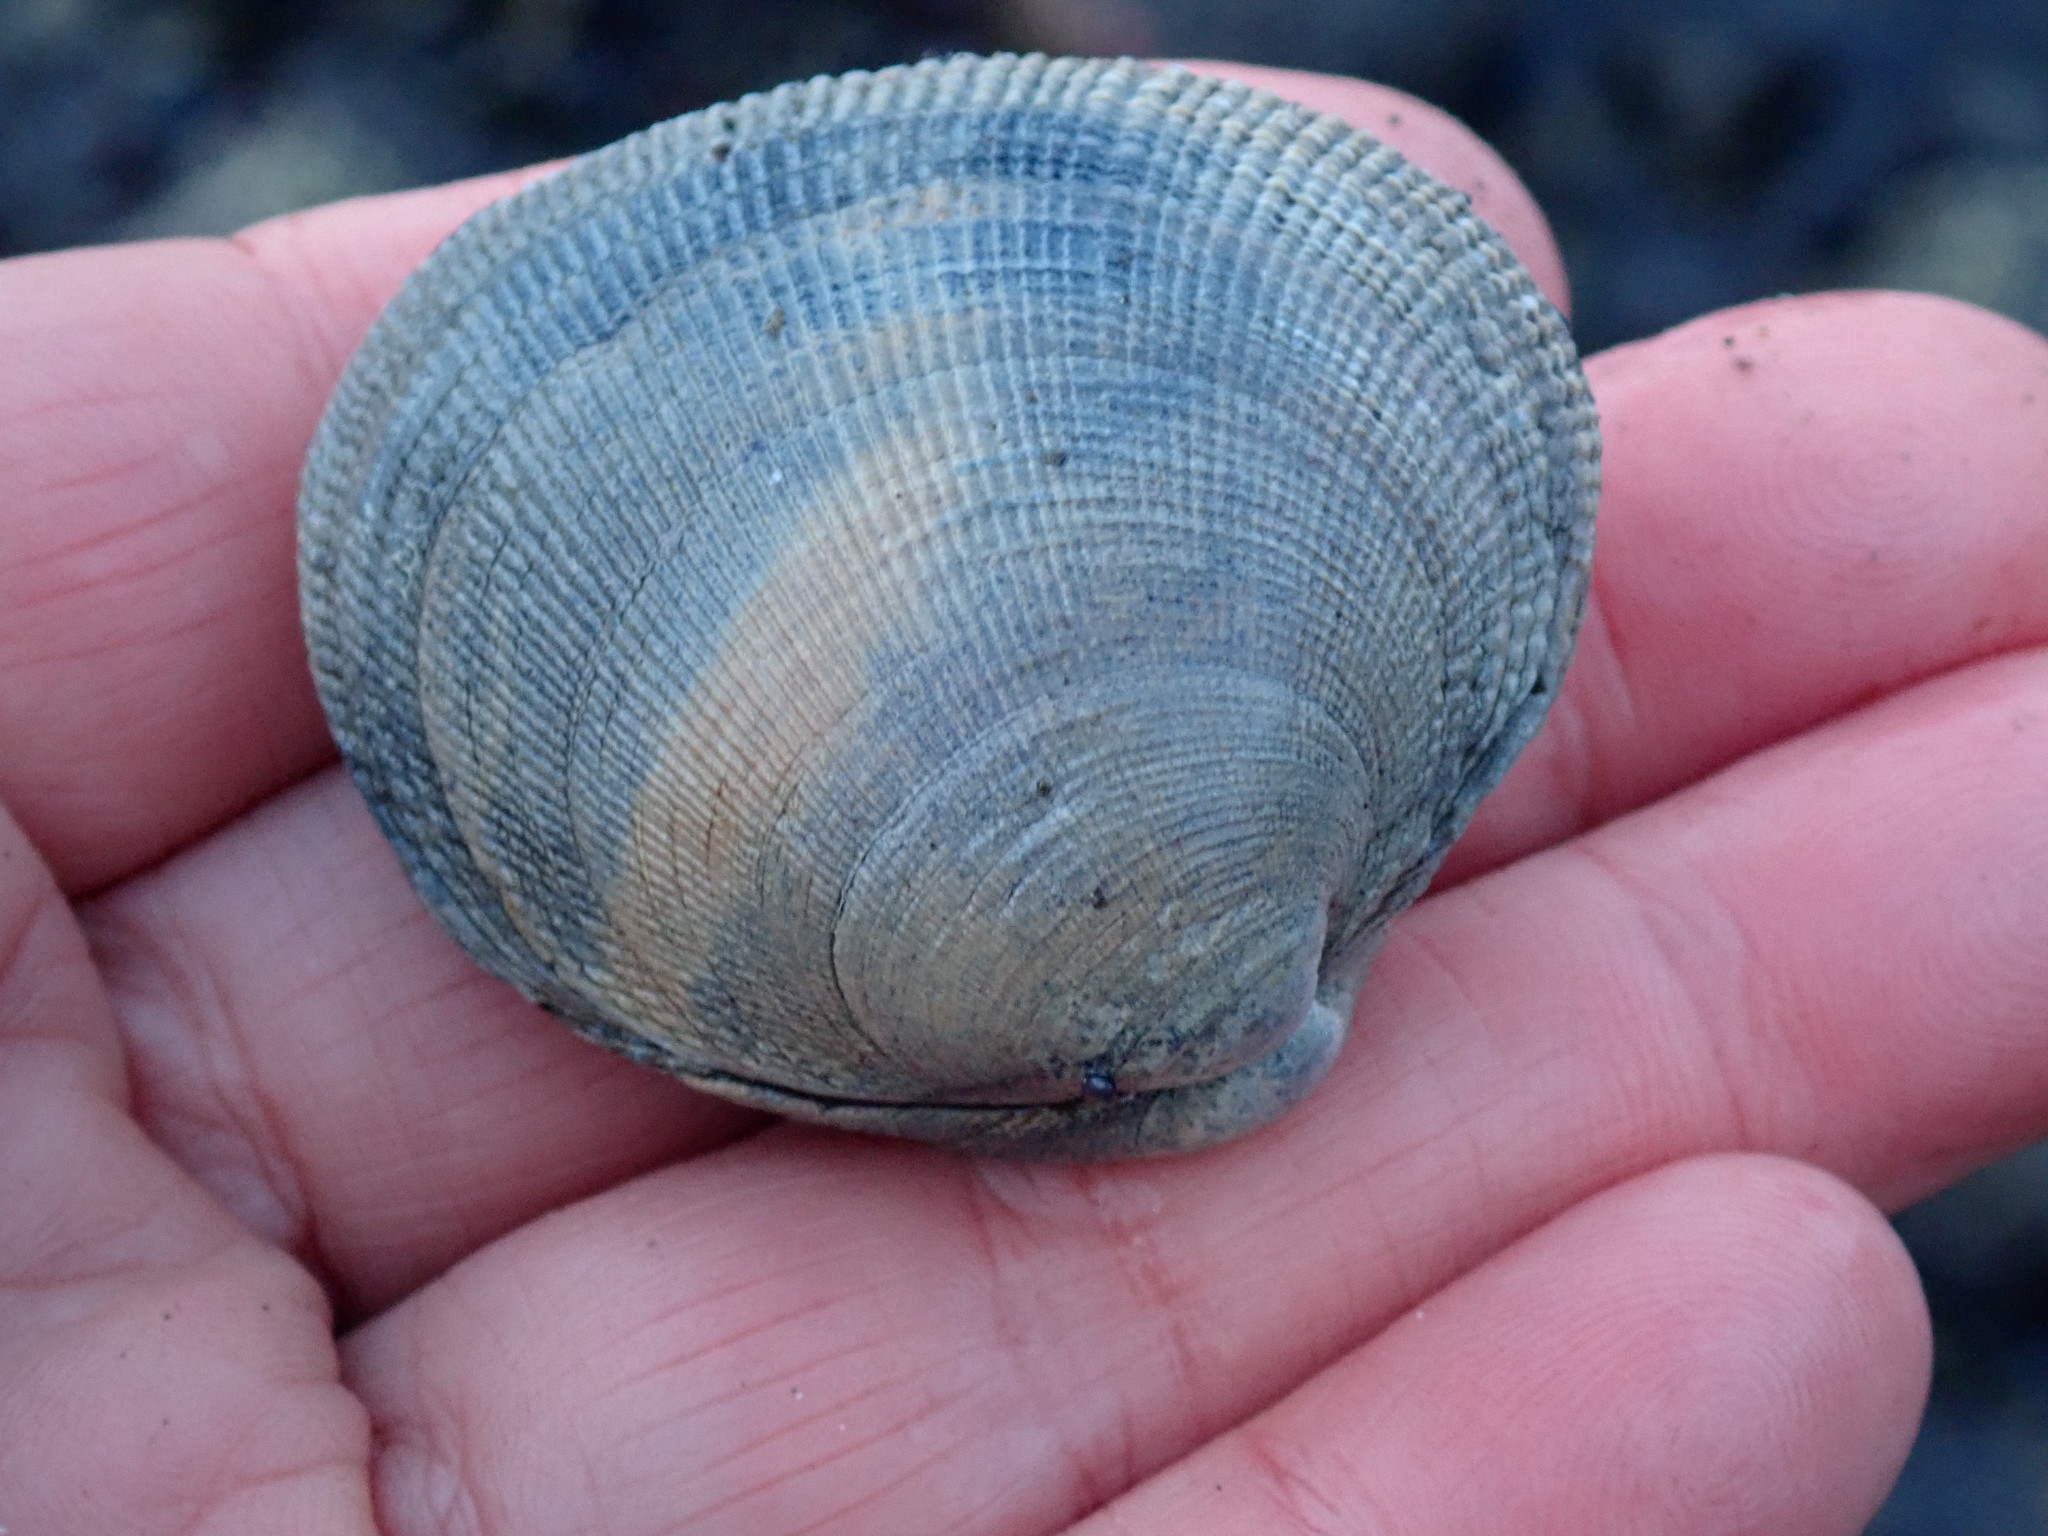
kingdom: Animalia
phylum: Mollusca
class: Bivalvia
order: Venerida
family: Veneridae
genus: Leukoma
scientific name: Leukoma staminea
